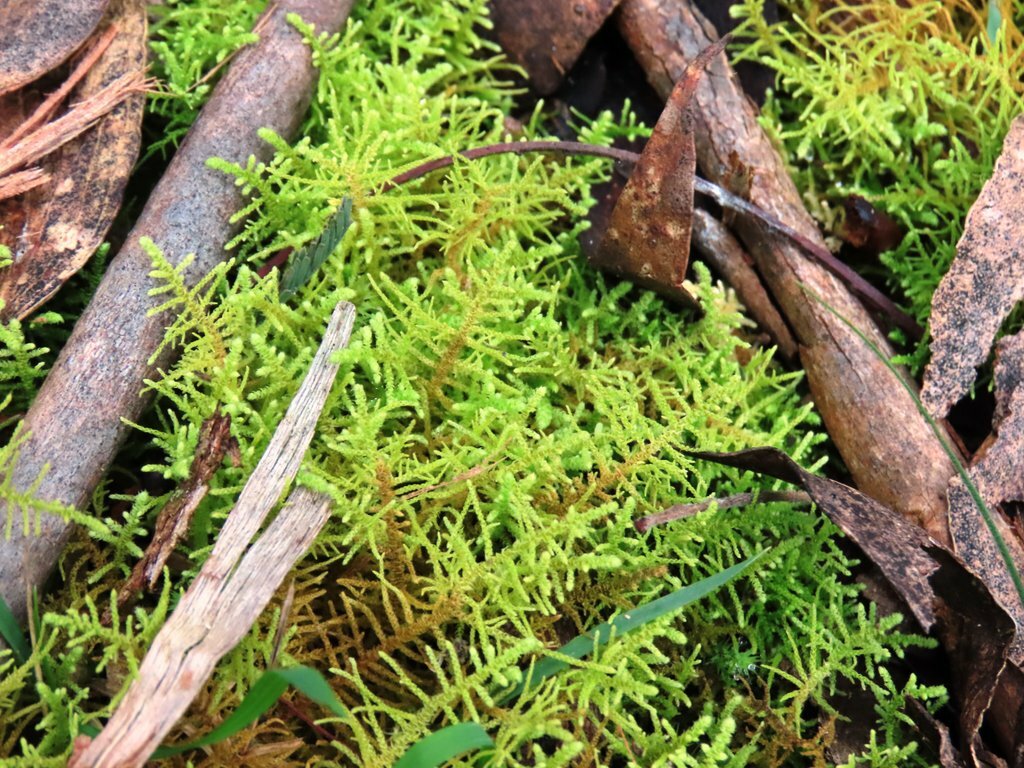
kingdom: Plantae
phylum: Bryophyta
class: Bryopsida
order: Hypnales
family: Thuidiaceae
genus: Thuidiopsis
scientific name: Thuidiopsis sparsa
